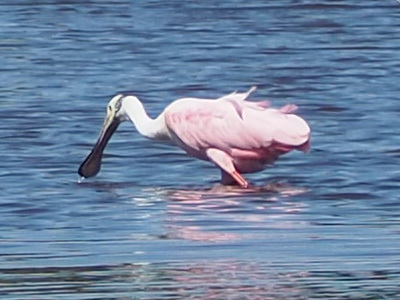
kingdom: Animalia
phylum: Chordata
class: Aves
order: Pelecaniformes
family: Threskiornithidae
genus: Platalea
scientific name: Platalea ajaja
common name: Roseate spoonbill
